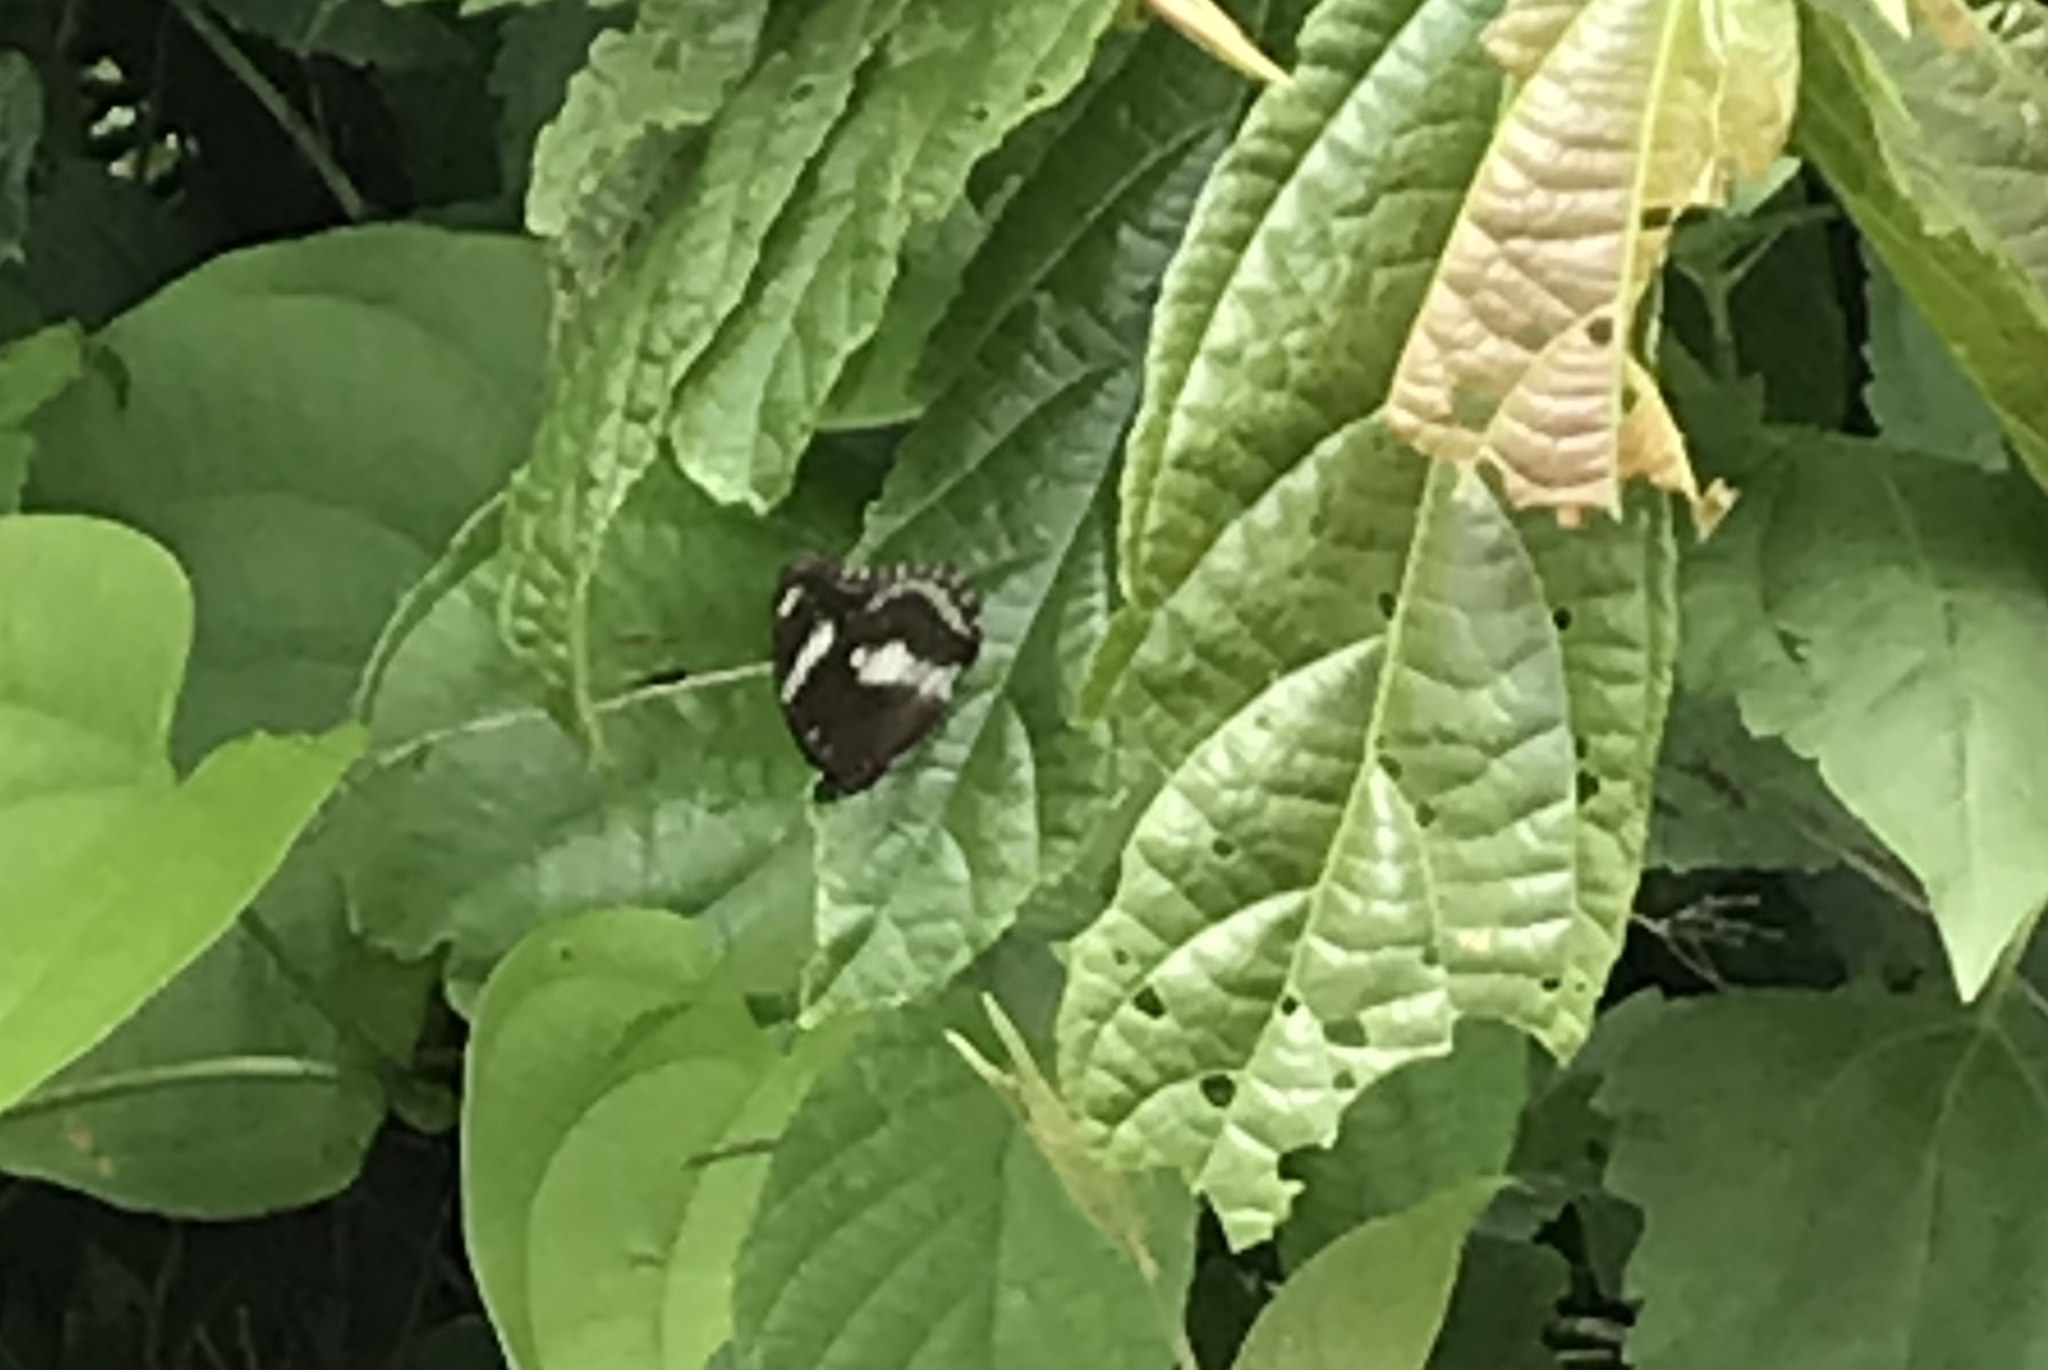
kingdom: Animalia
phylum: Arthropoda
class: Insecta
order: Lepidoptera
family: Nymphalidae
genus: Hypolimnas
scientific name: Hypolimnas bolina
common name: Great eggfly
